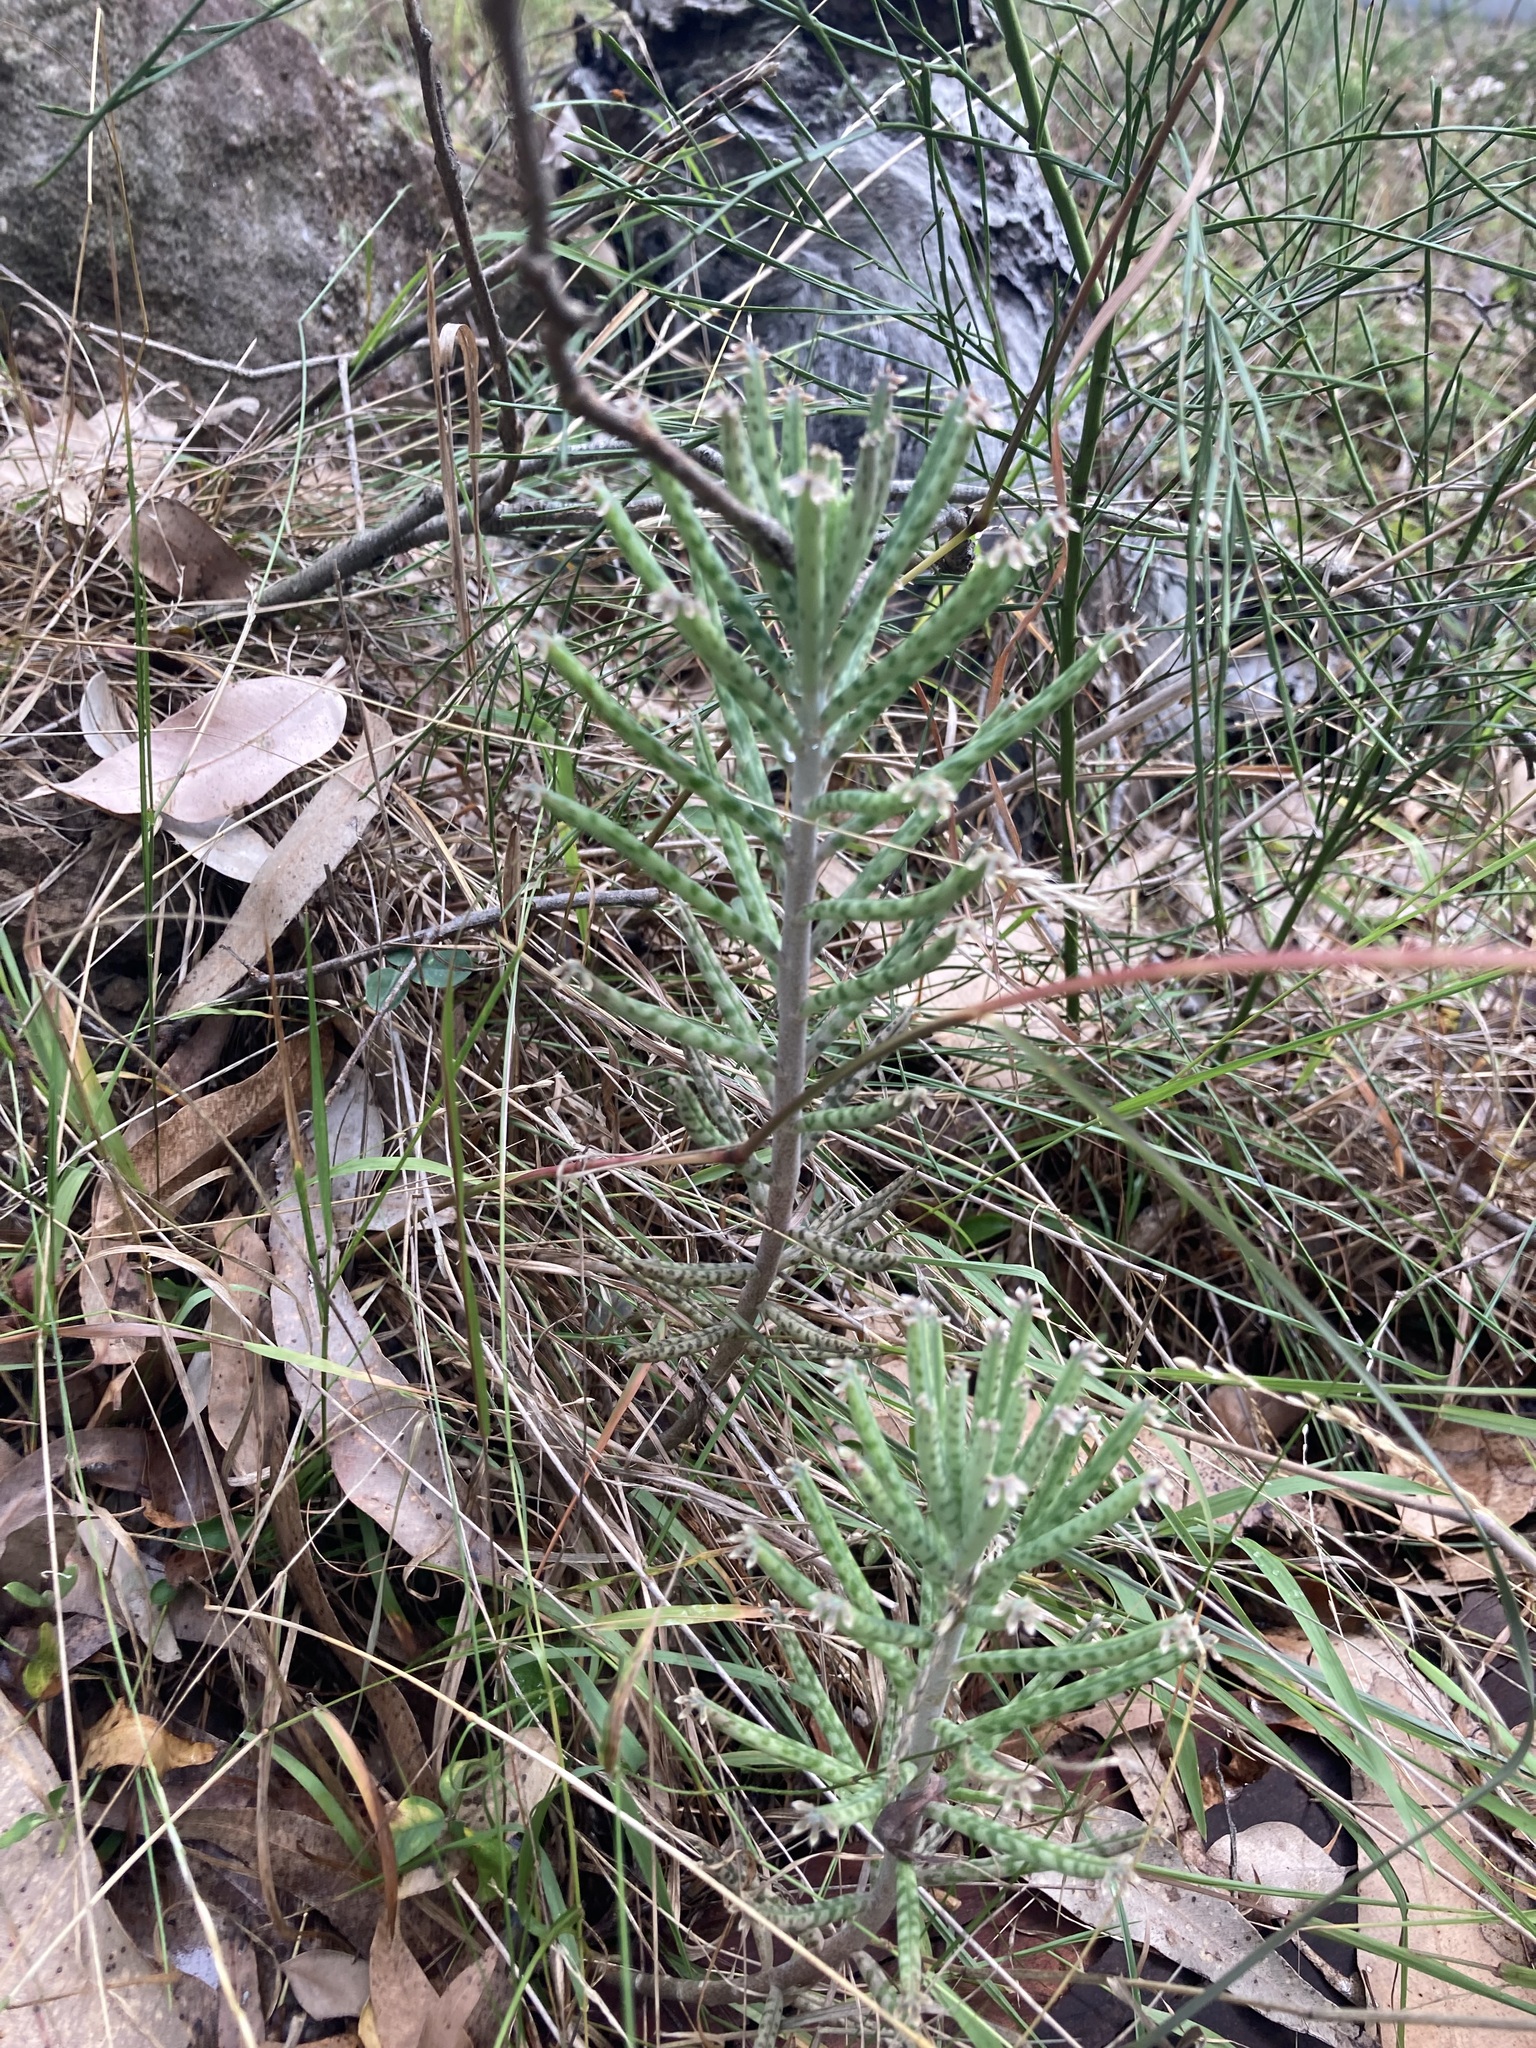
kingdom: Plantae
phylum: Tracheophyta
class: Magnoliopsida
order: Saxifragales
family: Crassulaceae
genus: Kalanchoe
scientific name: Kalanchoe delagoensis
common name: Chandelier plant
